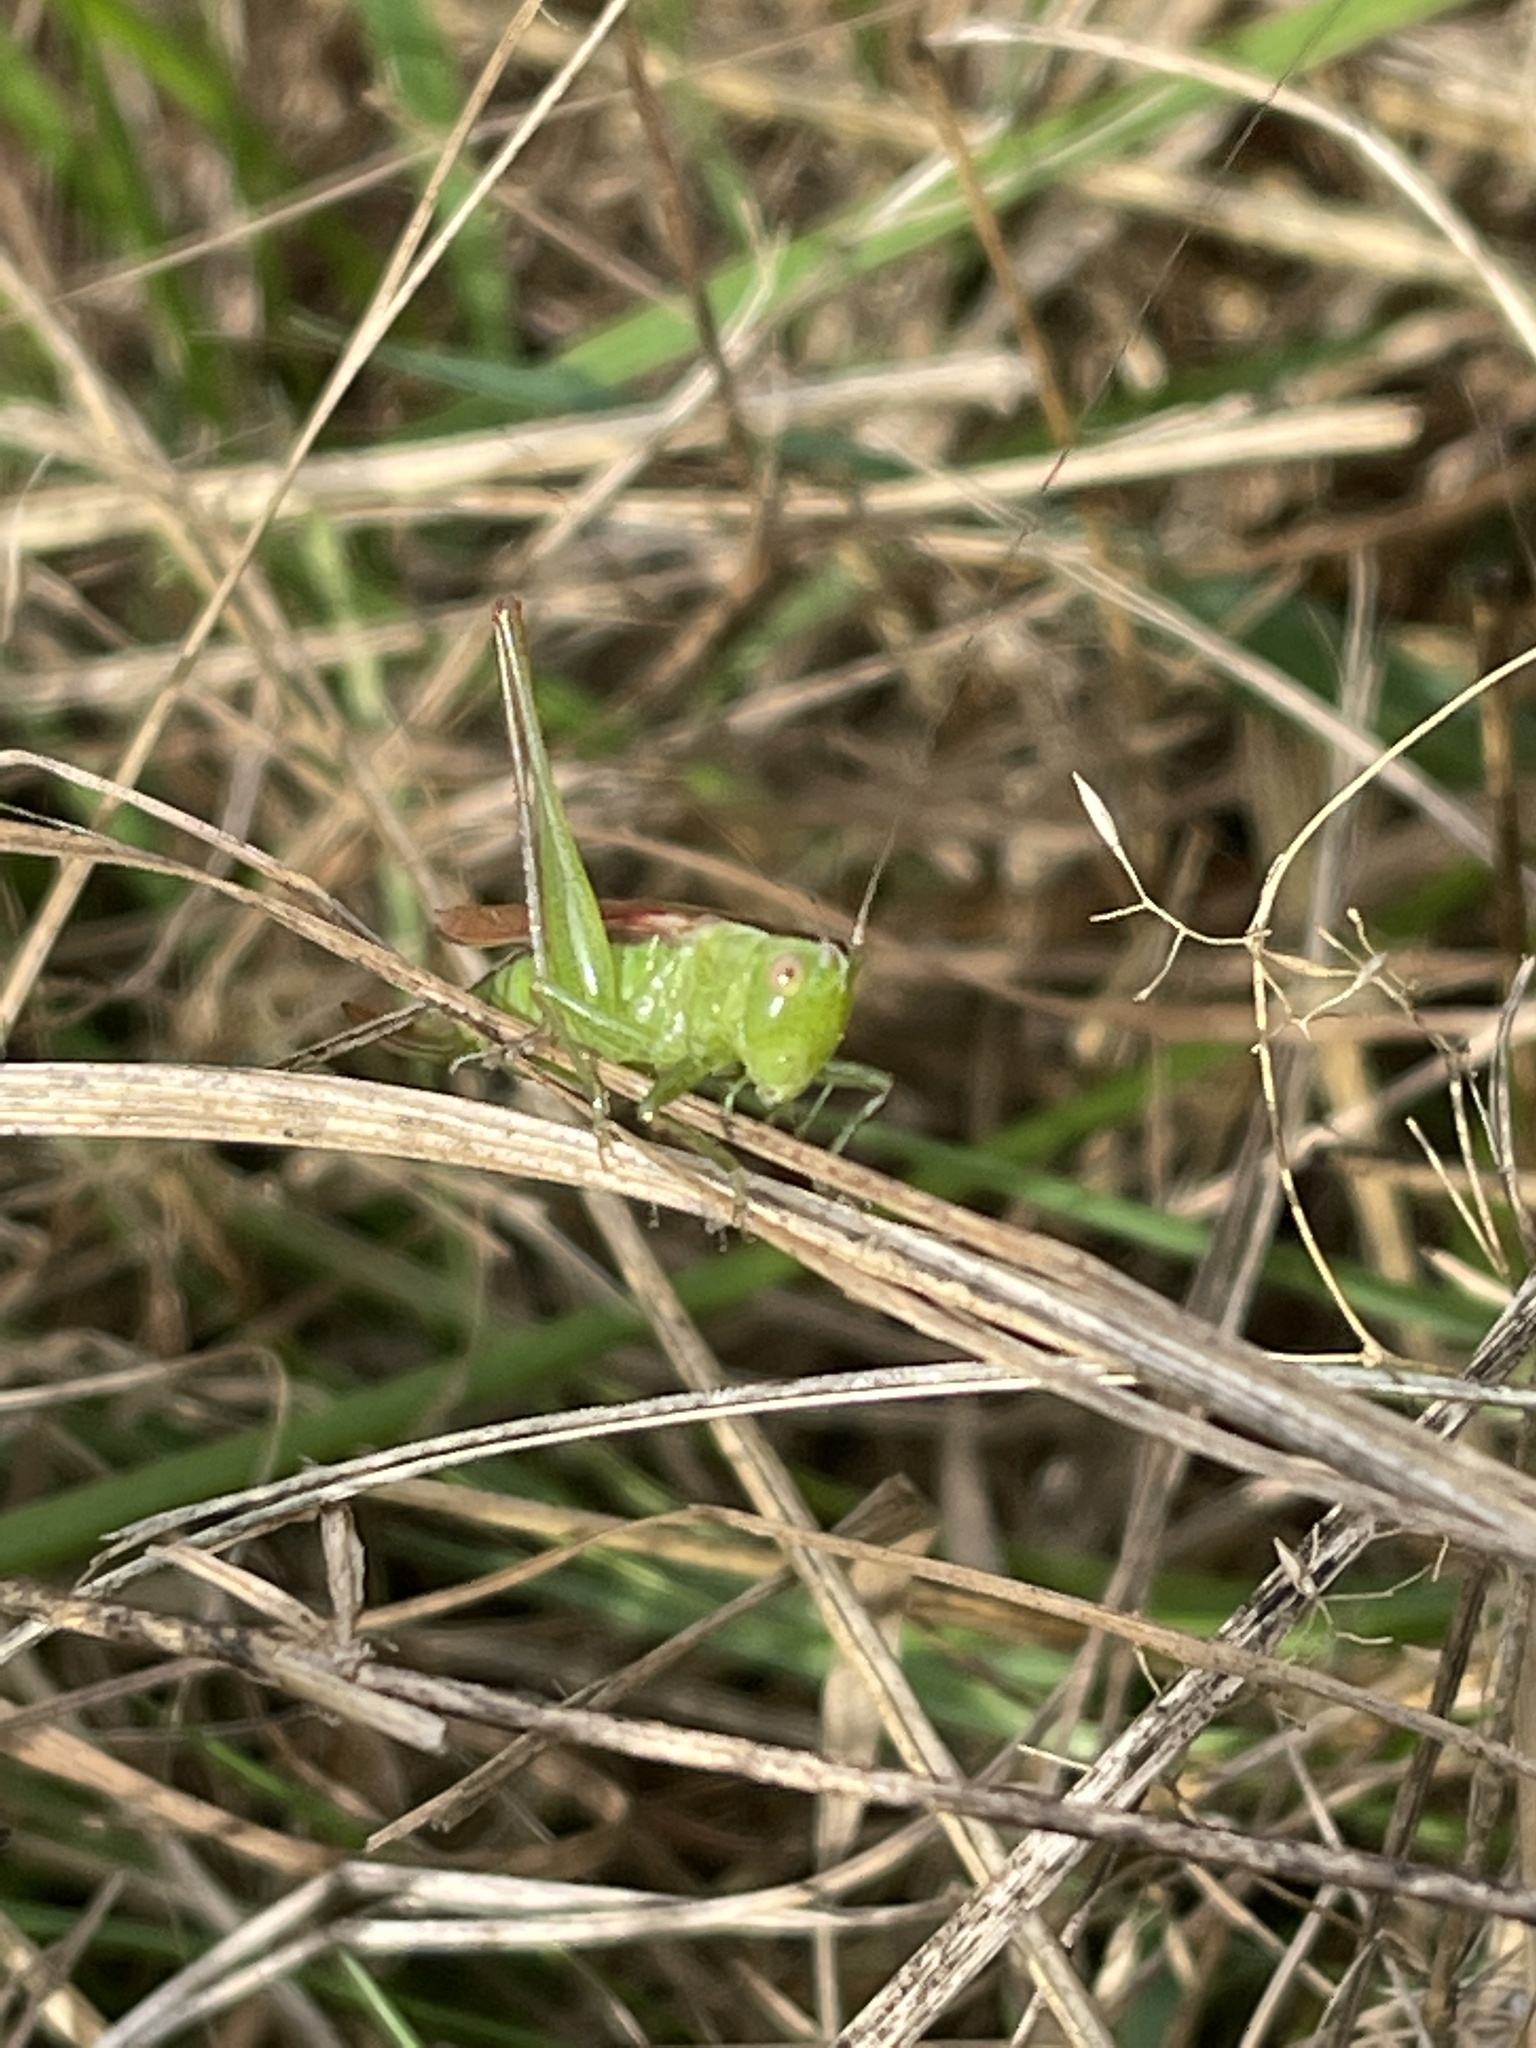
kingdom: Animalia
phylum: Arthropoda
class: Insecta
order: Orthoptera
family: Tettigoniidae
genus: Conocephalus
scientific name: Conocephalus fasciatus
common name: Slender meadow katydid
